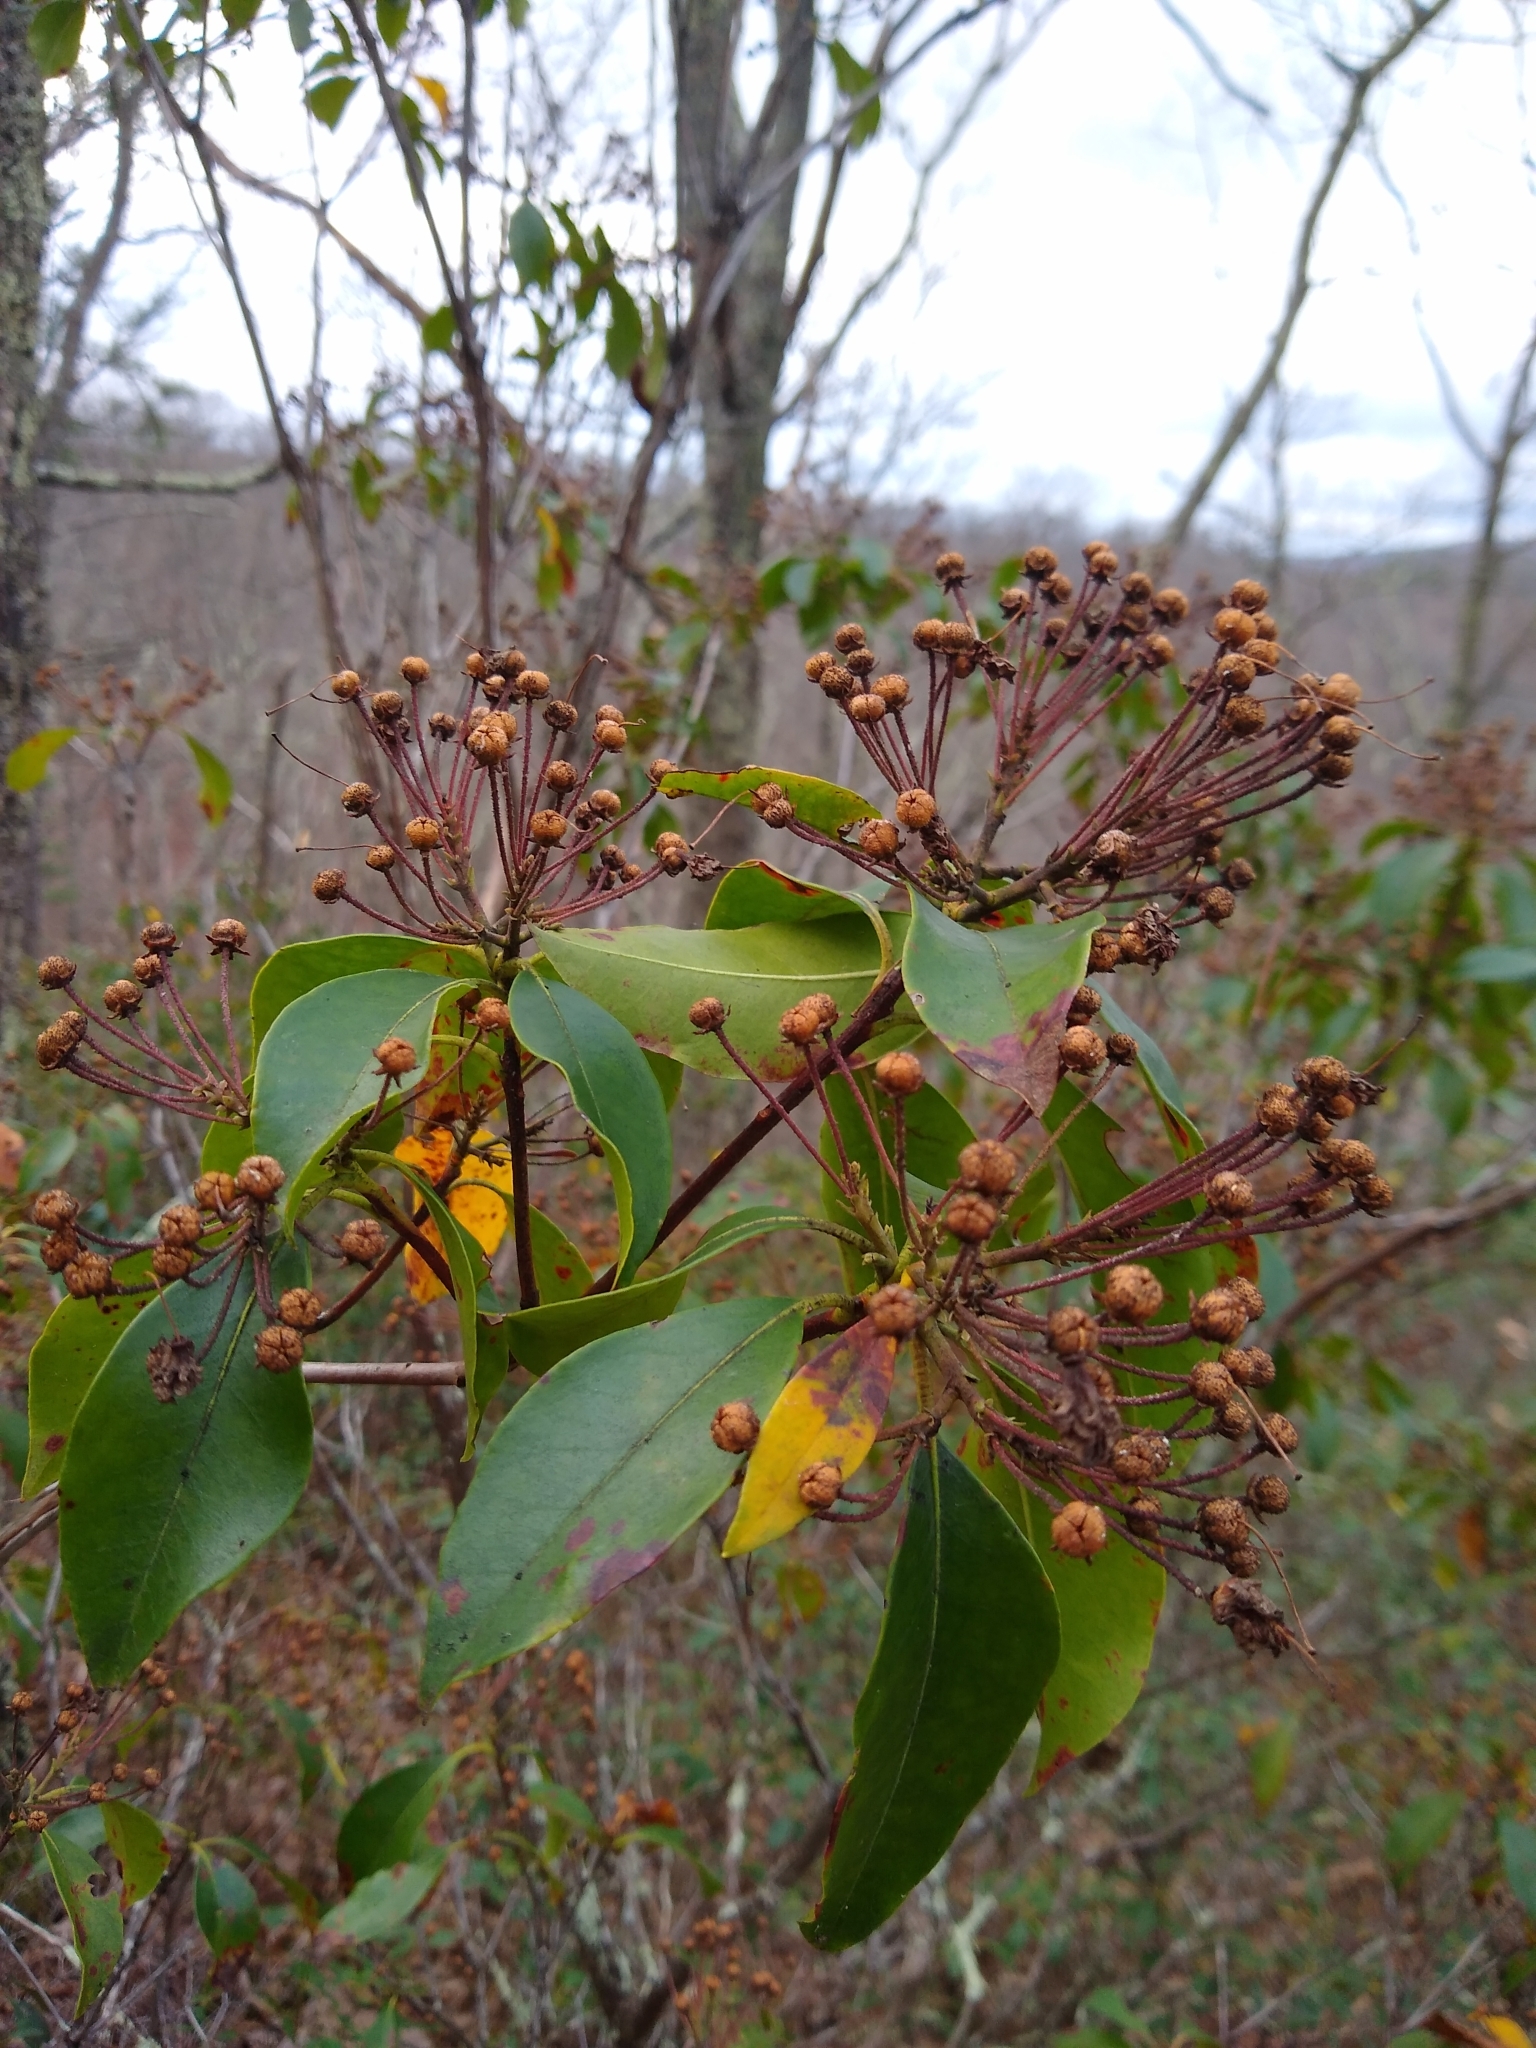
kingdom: Plantae
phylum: Tracheophyta
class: Magnoliopsida
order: Ericales
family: Ericaceae
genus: Kalmia
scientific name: Kalmia latifolia
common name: Mountain-laurel
